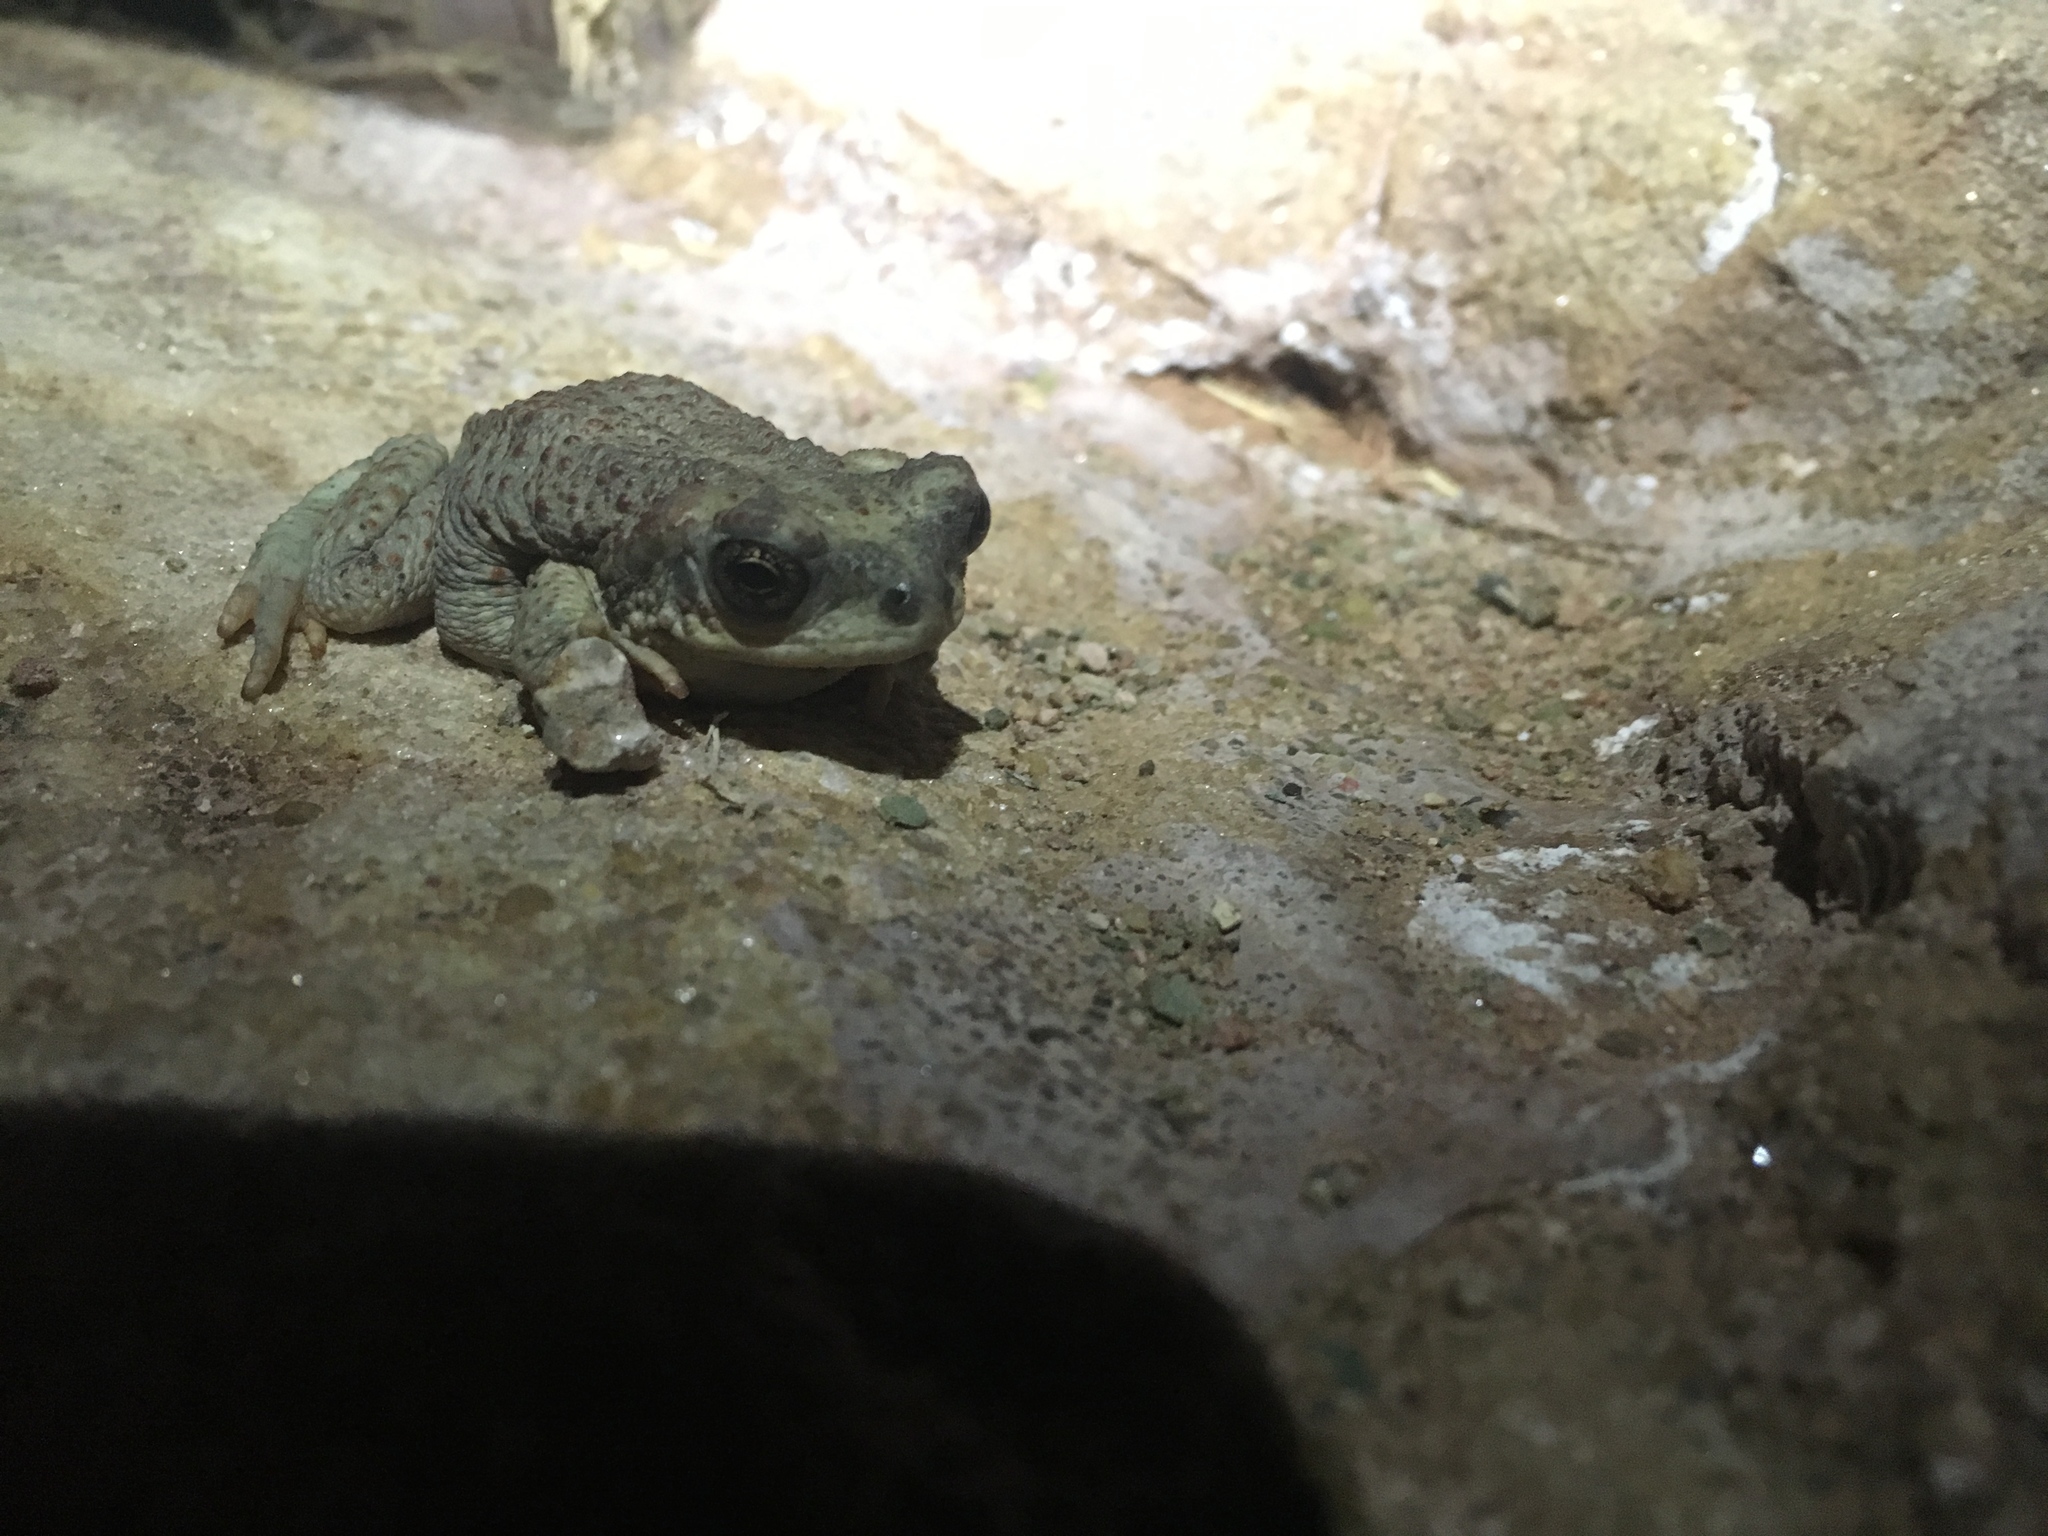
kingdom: Animalia
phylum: Chordata
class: Amphibia
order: Anura
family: Bufonidae
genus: Anaxyrus
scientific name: Anaxyrus punctatus
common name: Red-spotted toad
